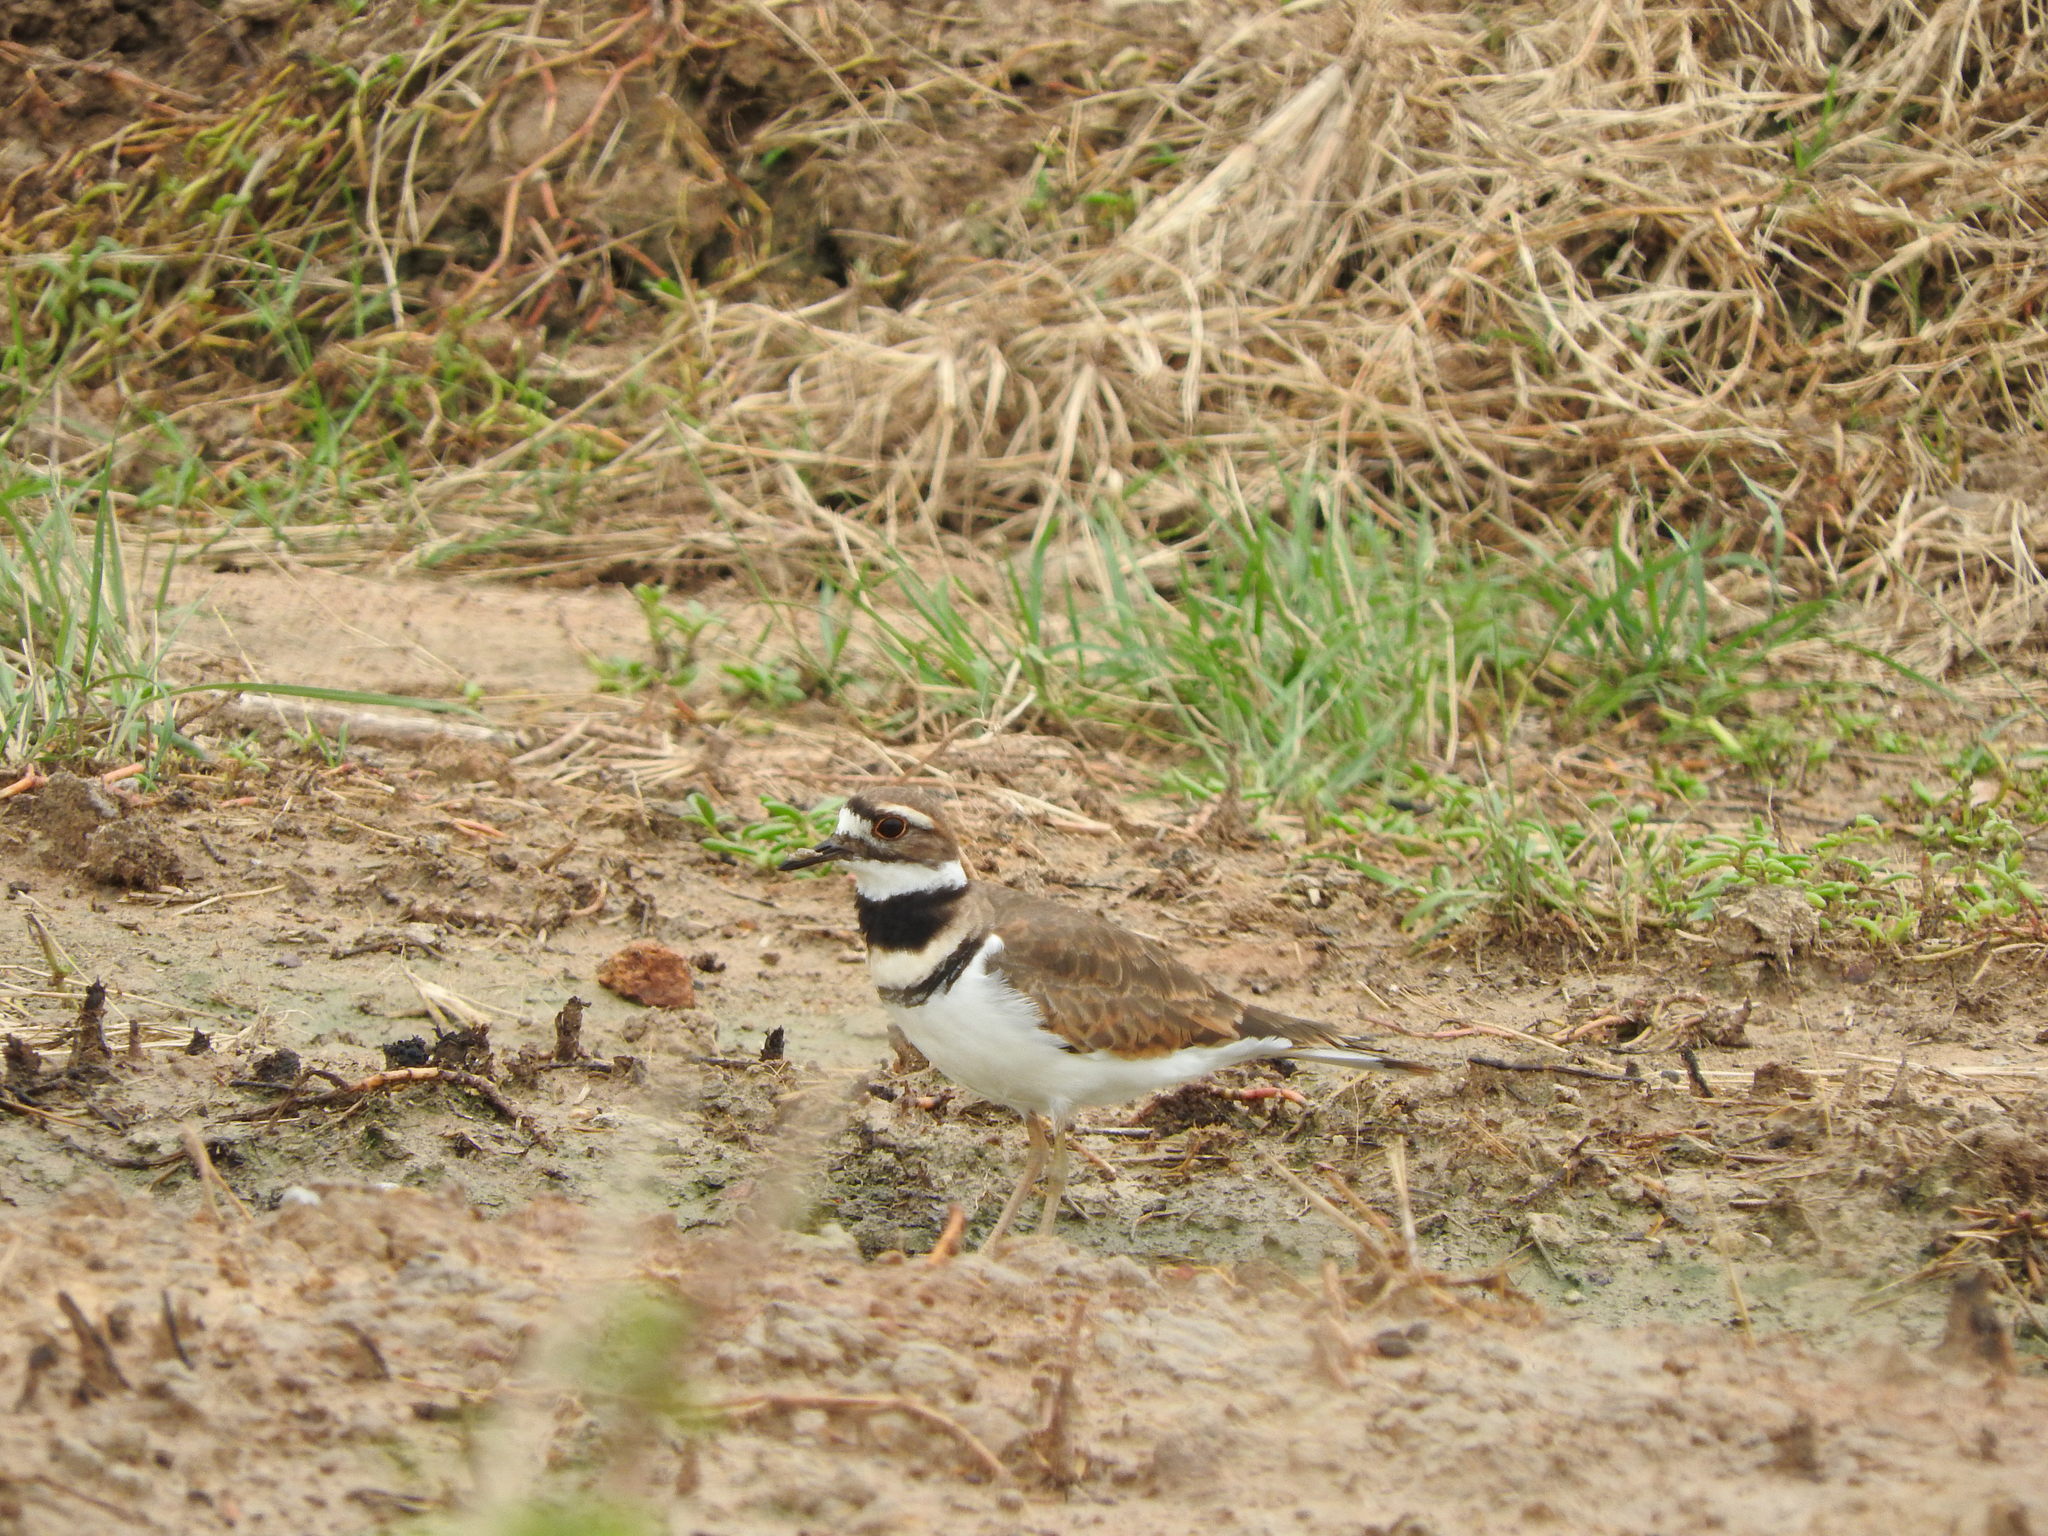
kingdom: Animalia
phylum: Chordata
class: Aves
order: Charadriiformes
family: Charadriidae
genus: Charadrius
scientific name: Charadrius vociferus
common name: Killdeer
